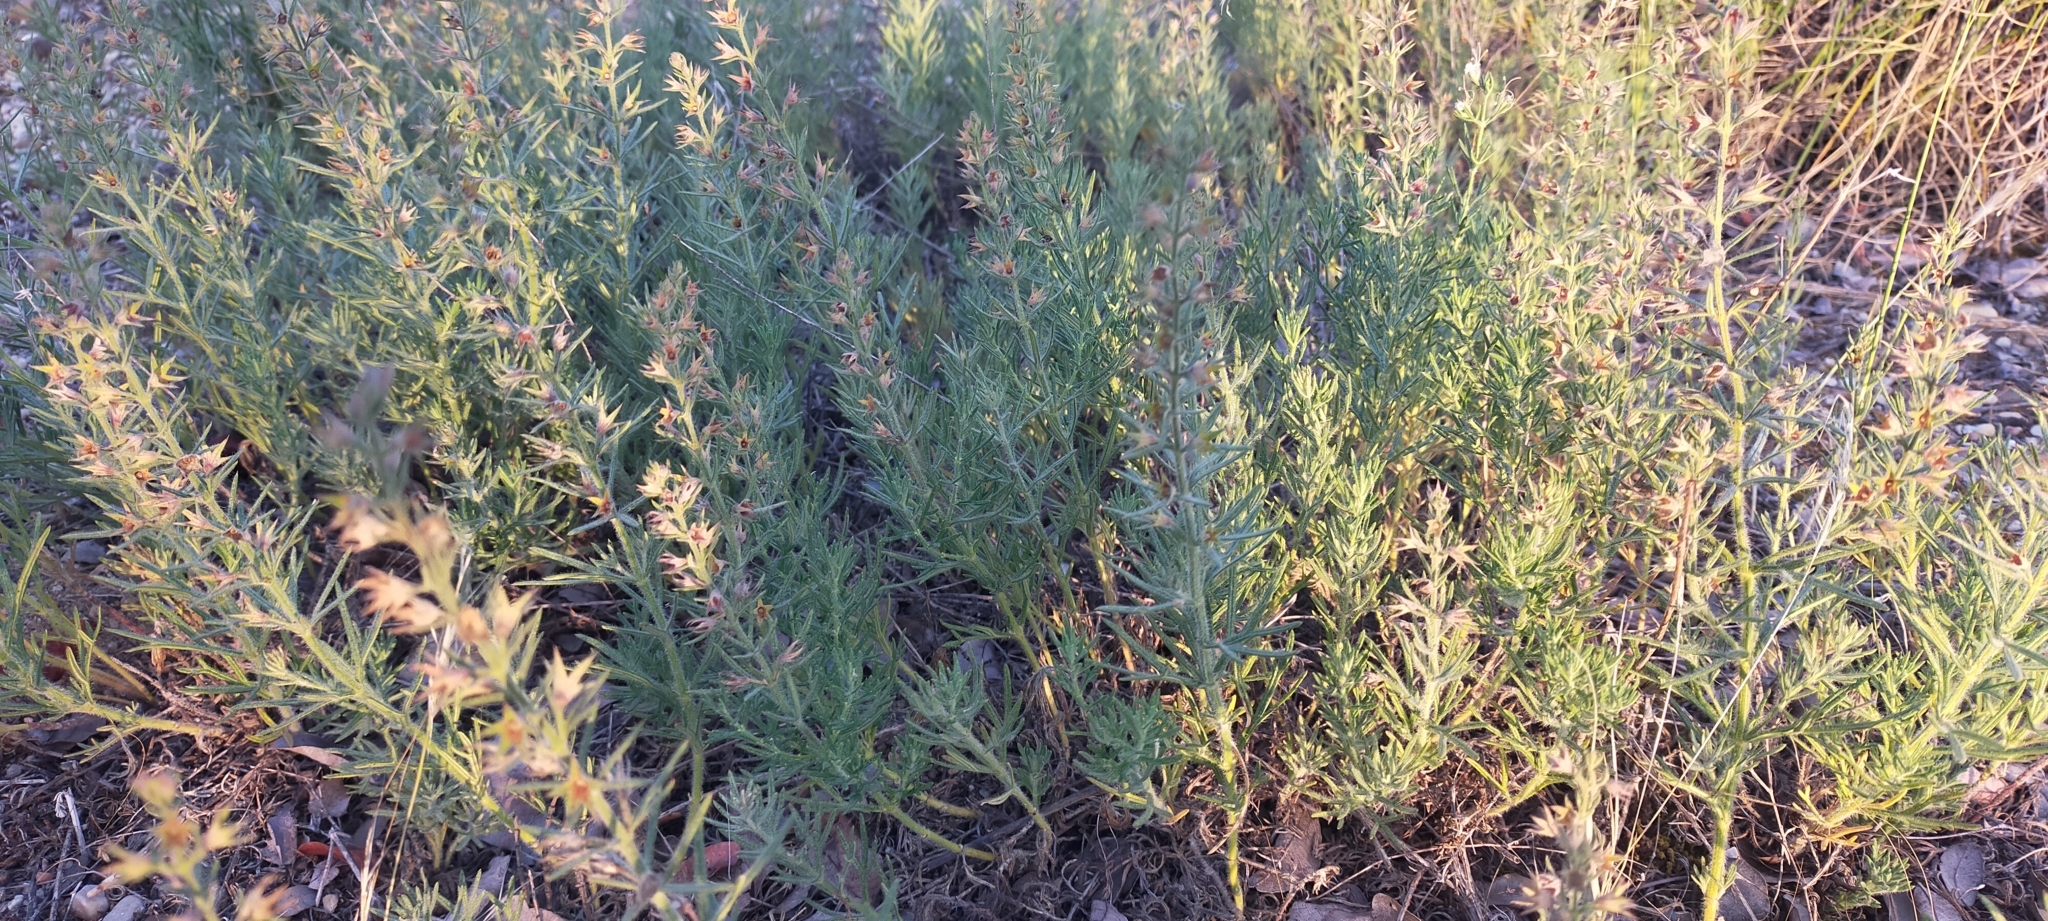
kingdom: Plantae
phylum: Tracheophyta
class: Magnoliopsida
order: Lamiales
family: Lamiaceae
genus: Teucrium
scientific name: Teucrium pseudochamaepitys
